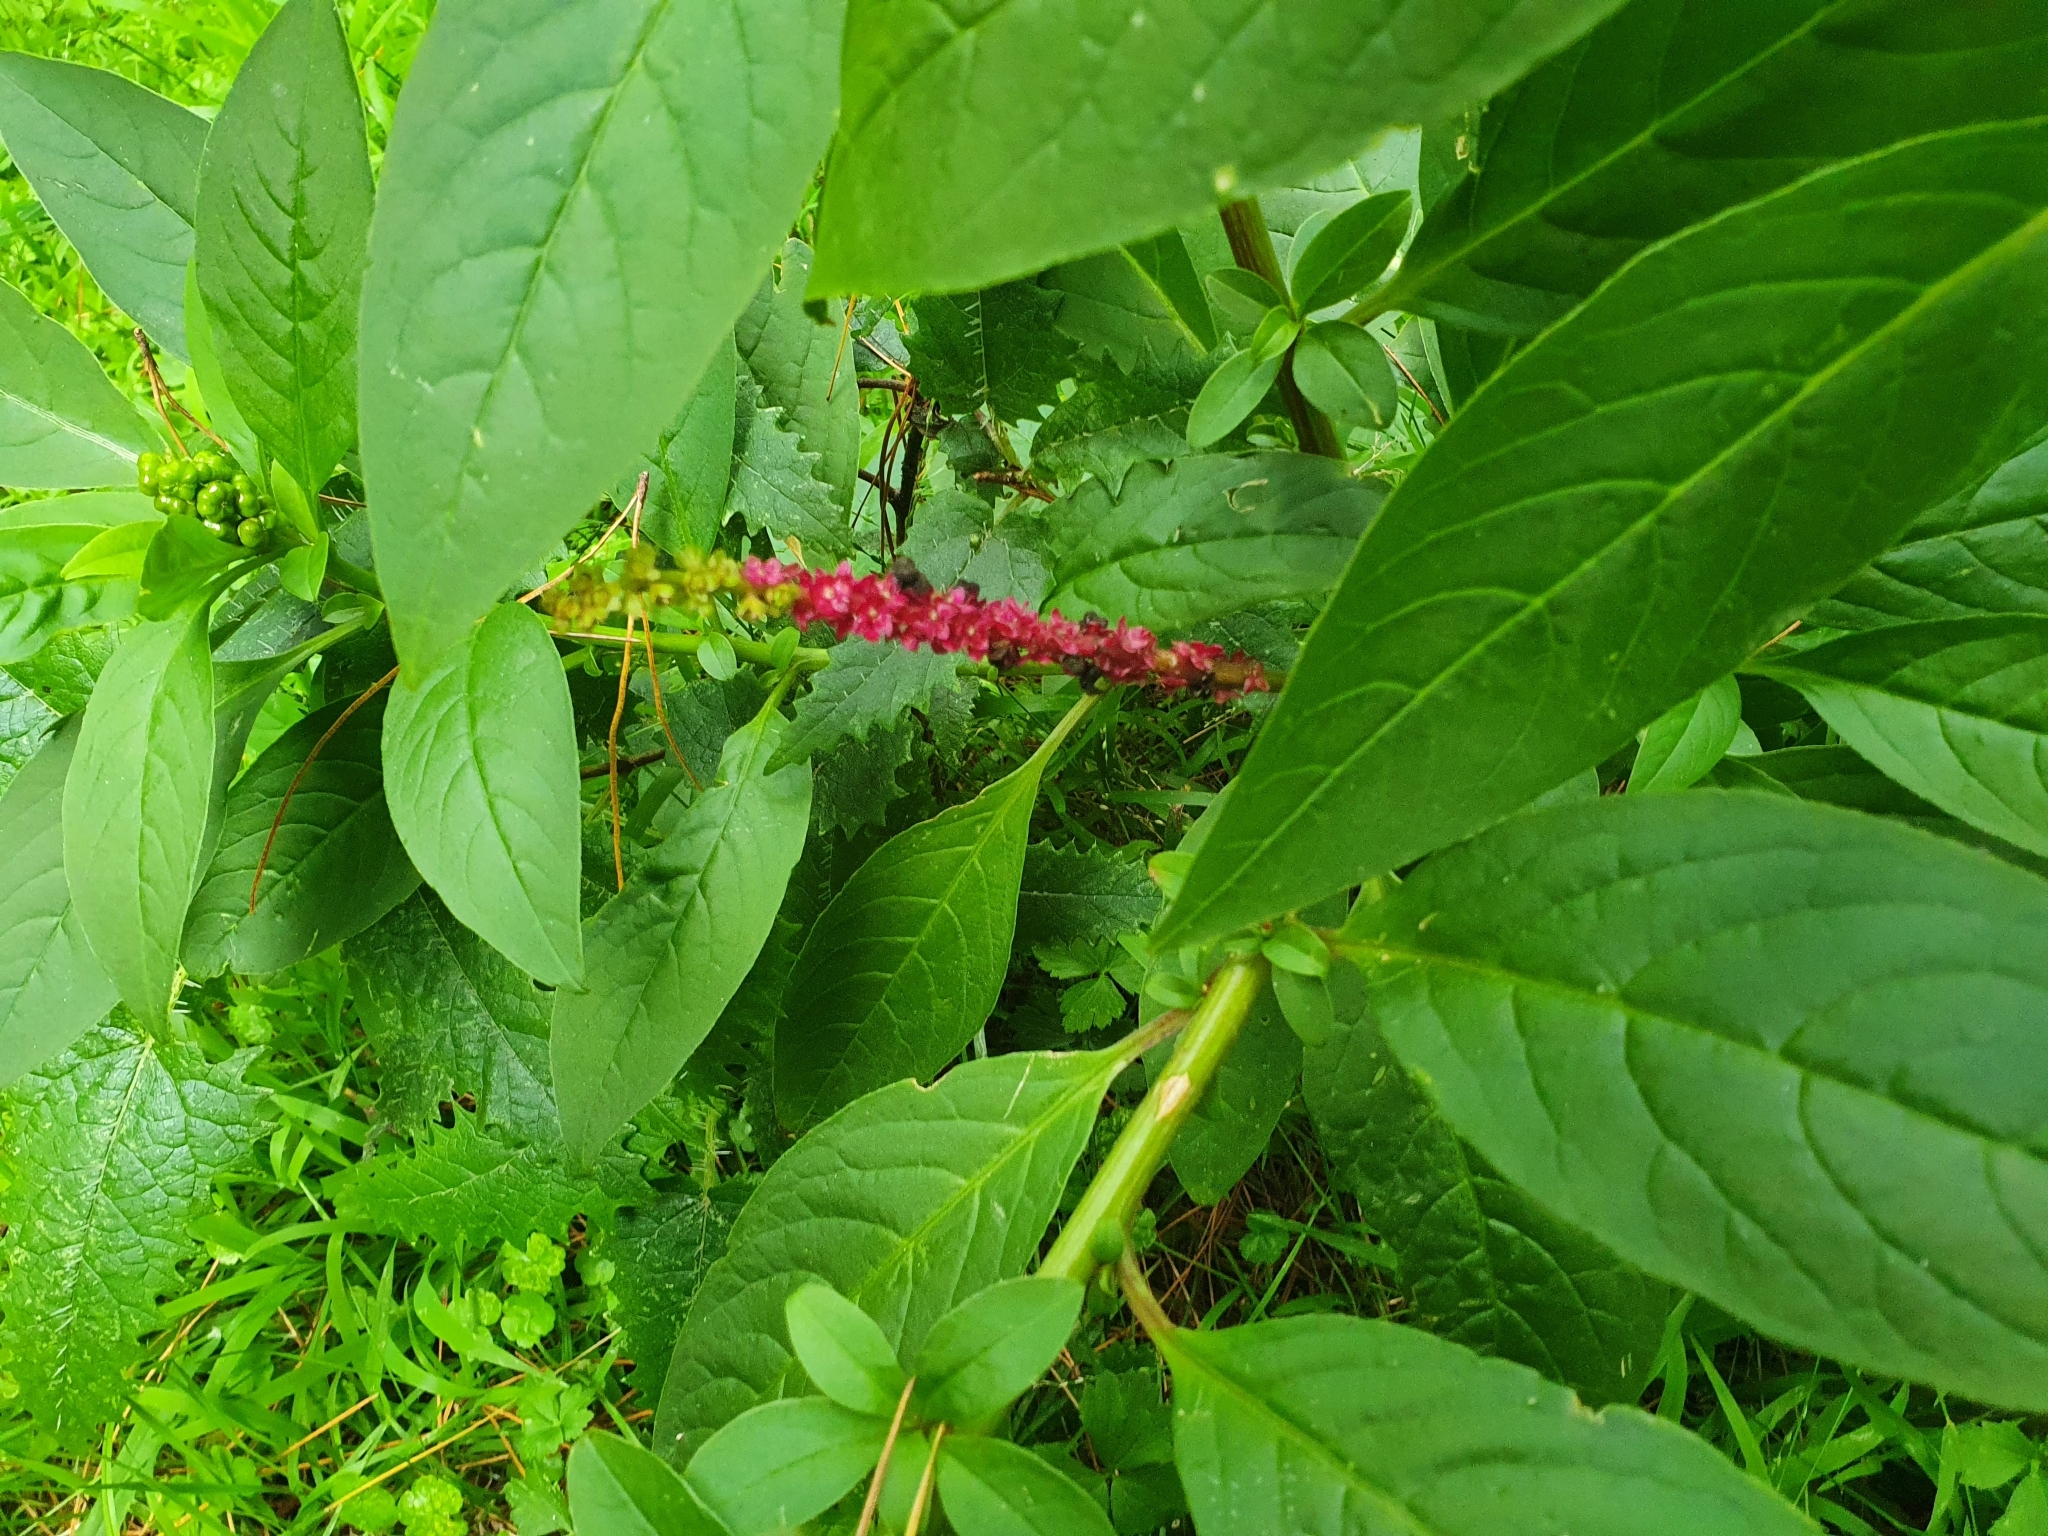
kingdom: Plantae
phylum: Tracheophyta
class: Magnoliopsida
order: Caryophyllales
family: Phytolaccaceae
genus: Phytolacca
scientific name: Phytolacca icosandra
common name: Button pokeweed
